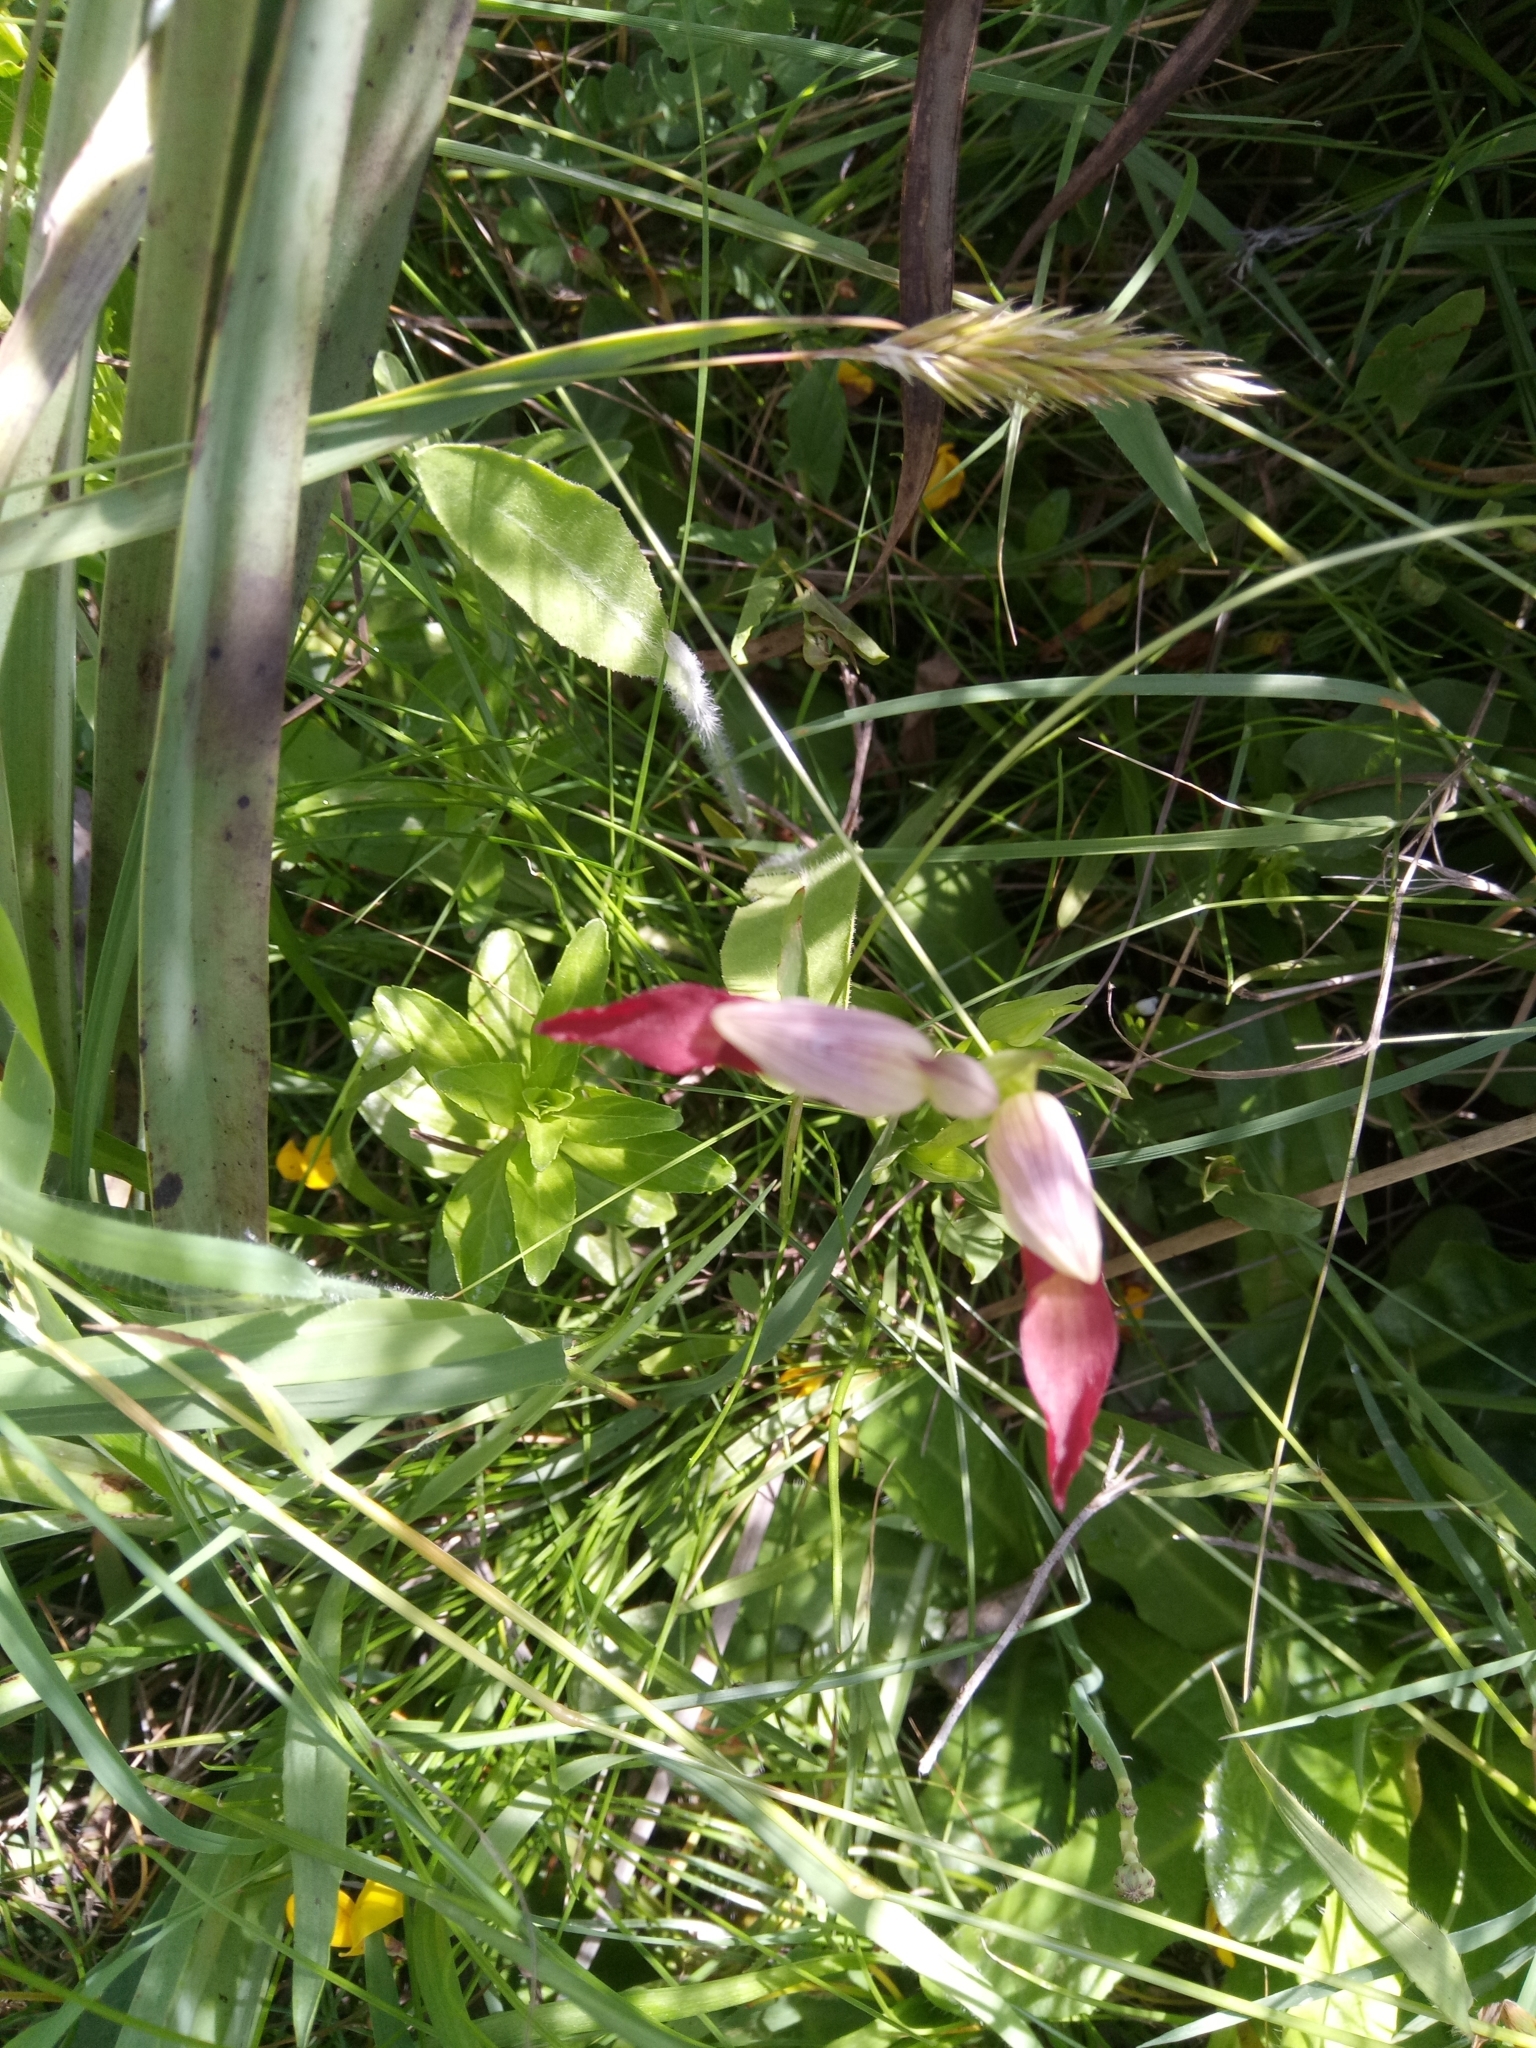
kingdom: Plantae
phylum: Tracheophyta
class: Liliopsida
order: Asparagales
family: Orchidaceae
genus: Serapias
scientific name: Serapias lingua
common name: Tongue-orchid
